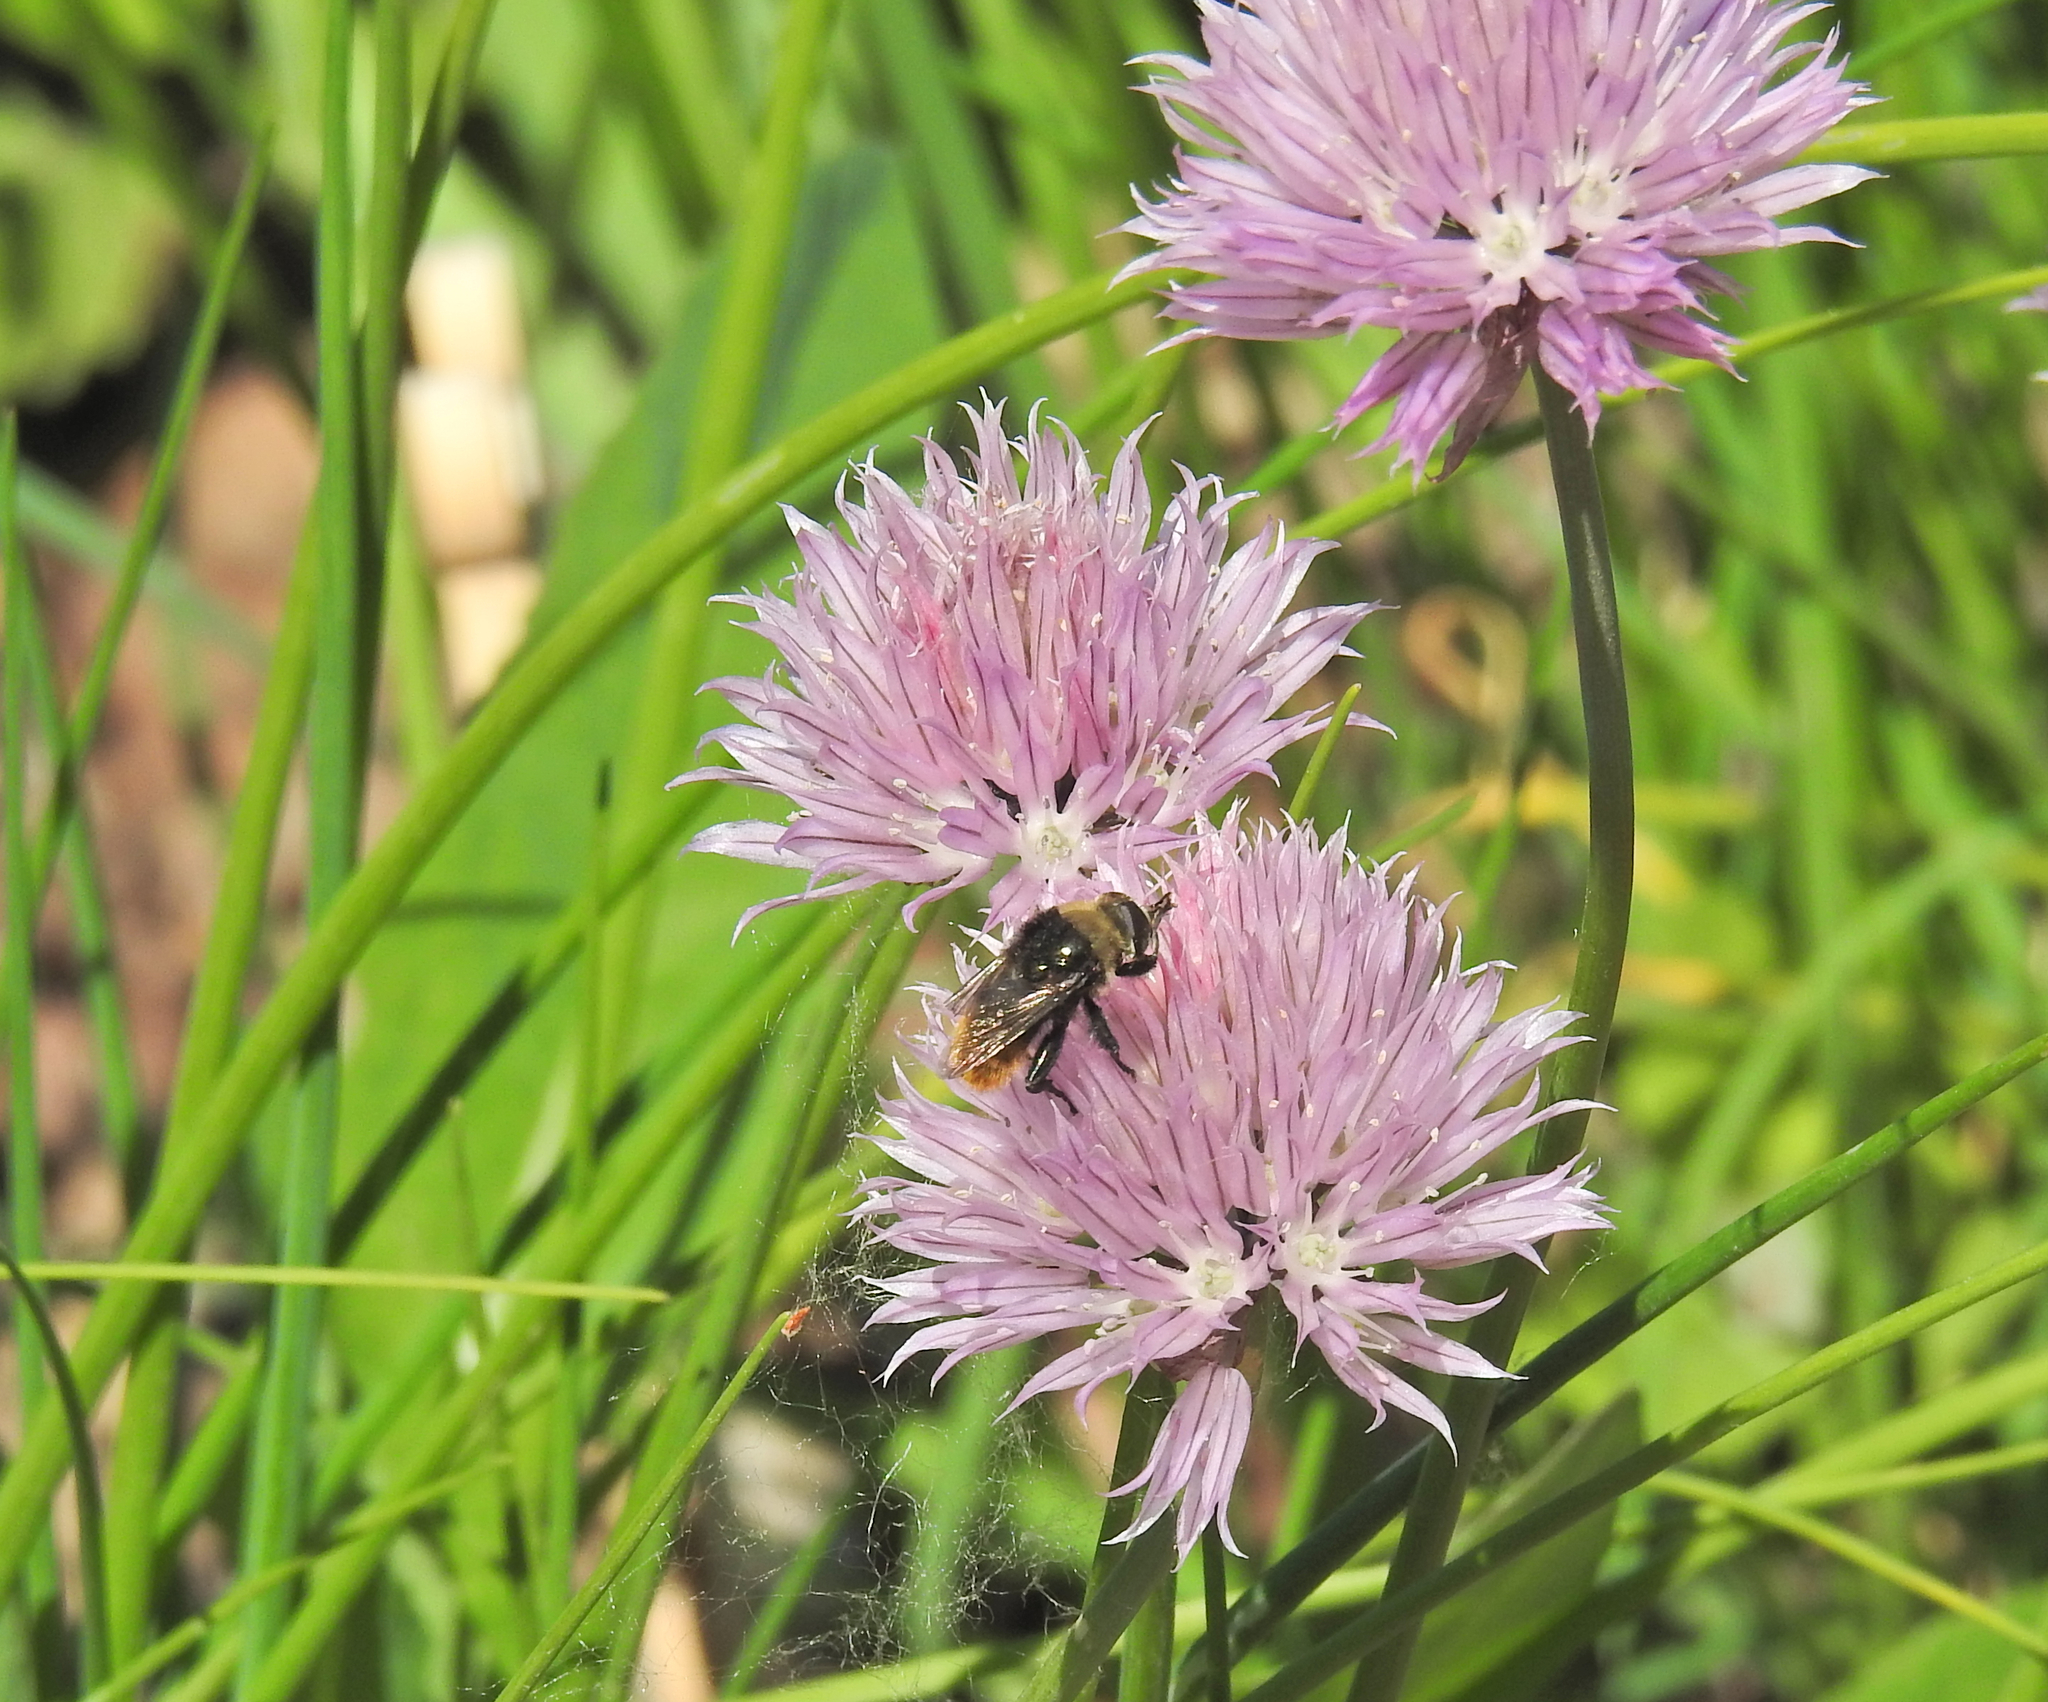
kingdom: Animalia
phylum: Arthropoda
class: Insecta
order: Diptera
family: Syrphidae
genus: Merodon
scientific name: Merodon equestris
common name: Greater bulb-fly
